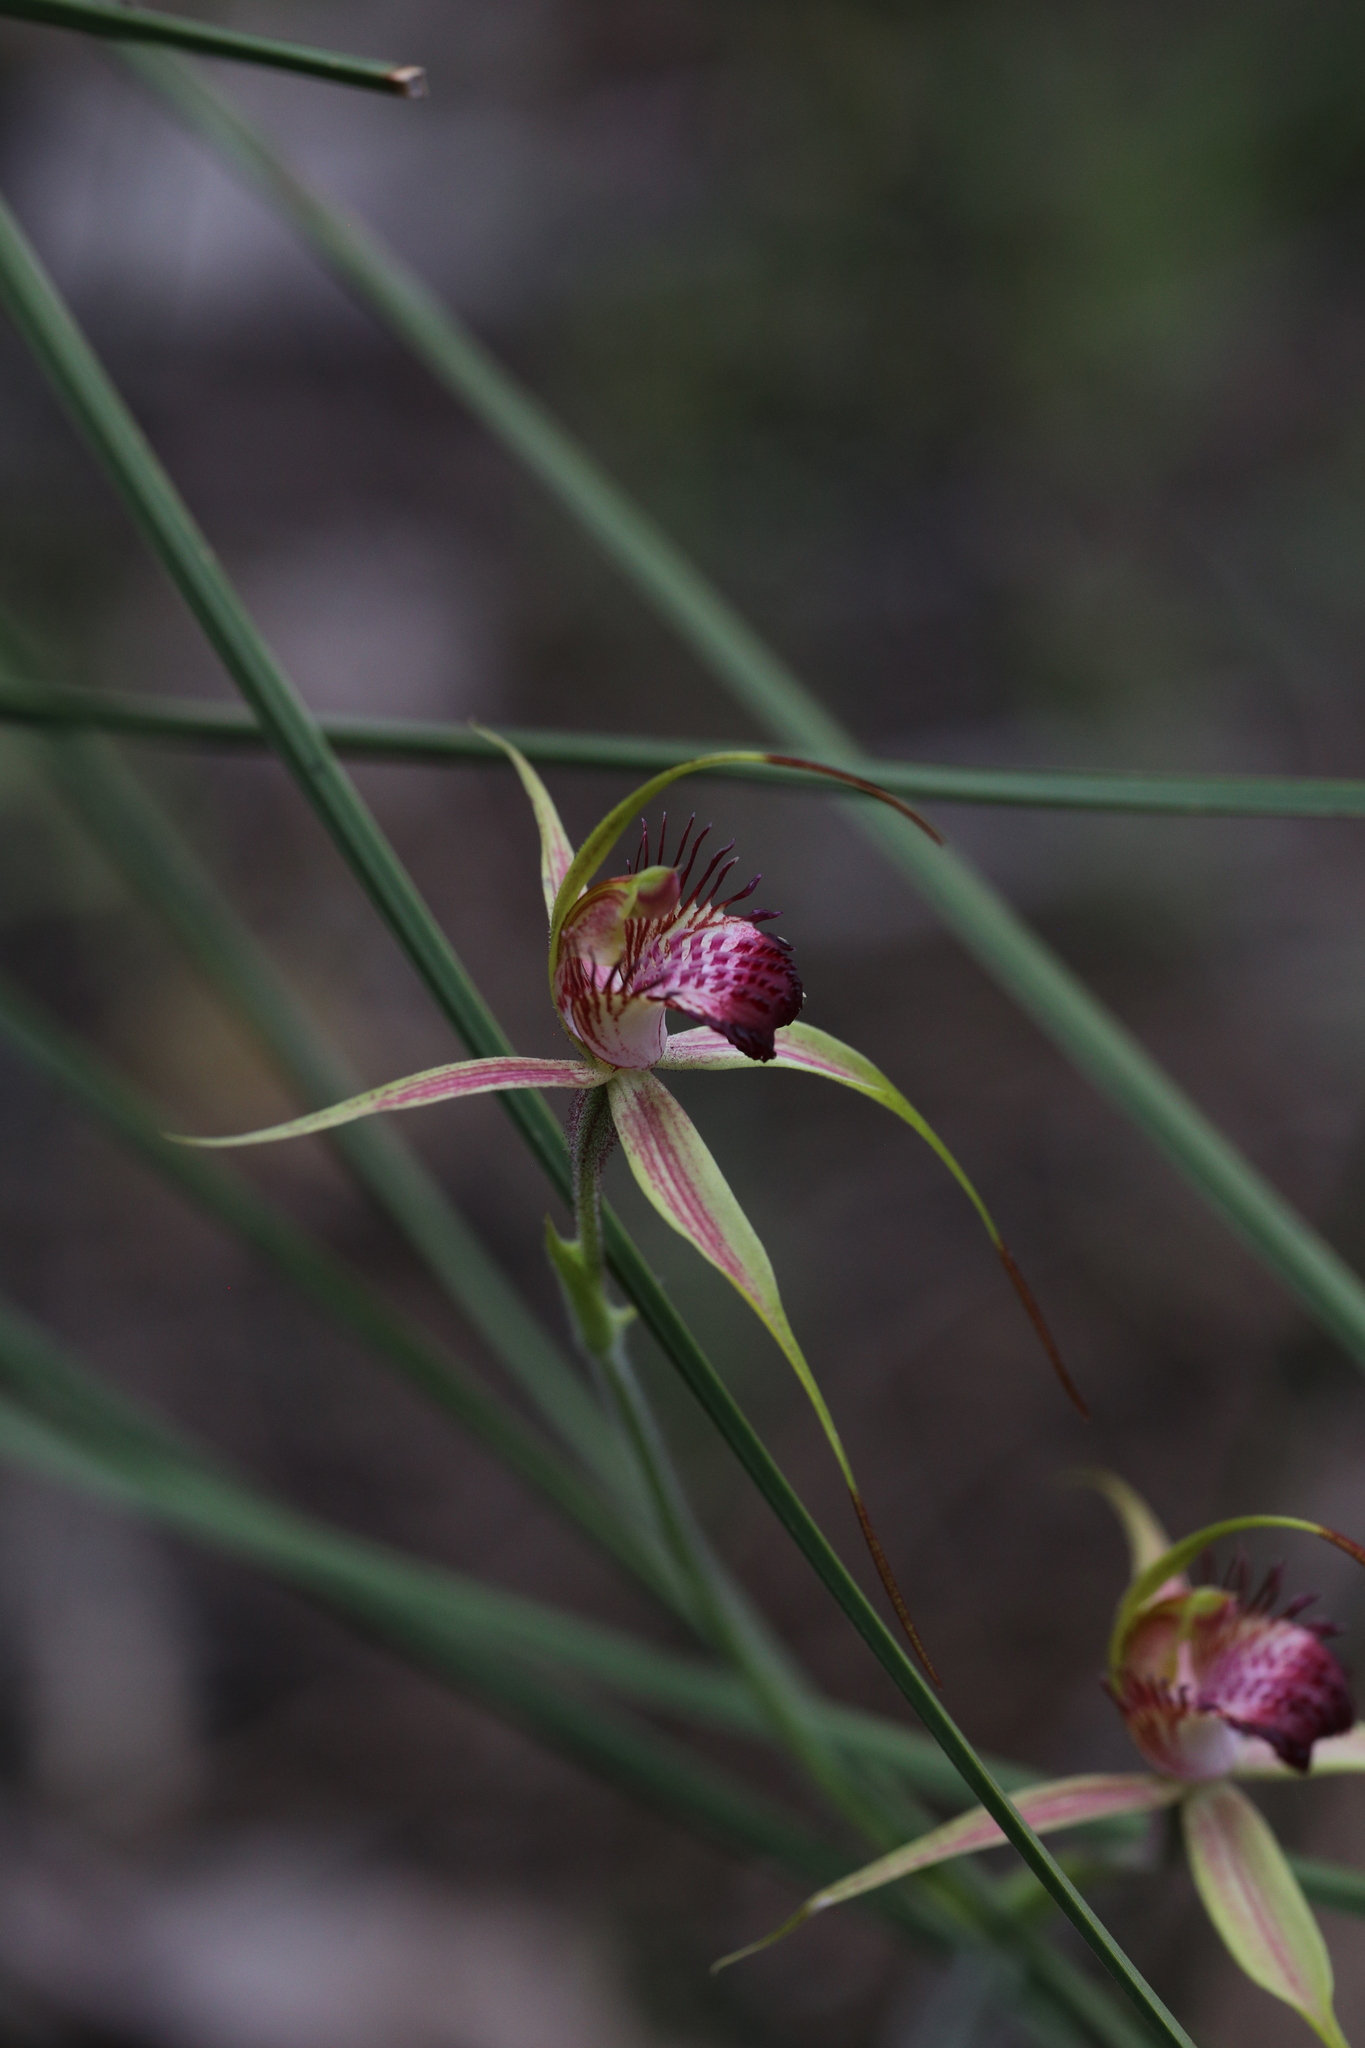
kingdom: Plantae
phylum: Tracheophyta
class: Liliopsida
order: Asparagales
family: Orchidaceae
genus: Caladenia
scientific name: Caladenia paludosa
